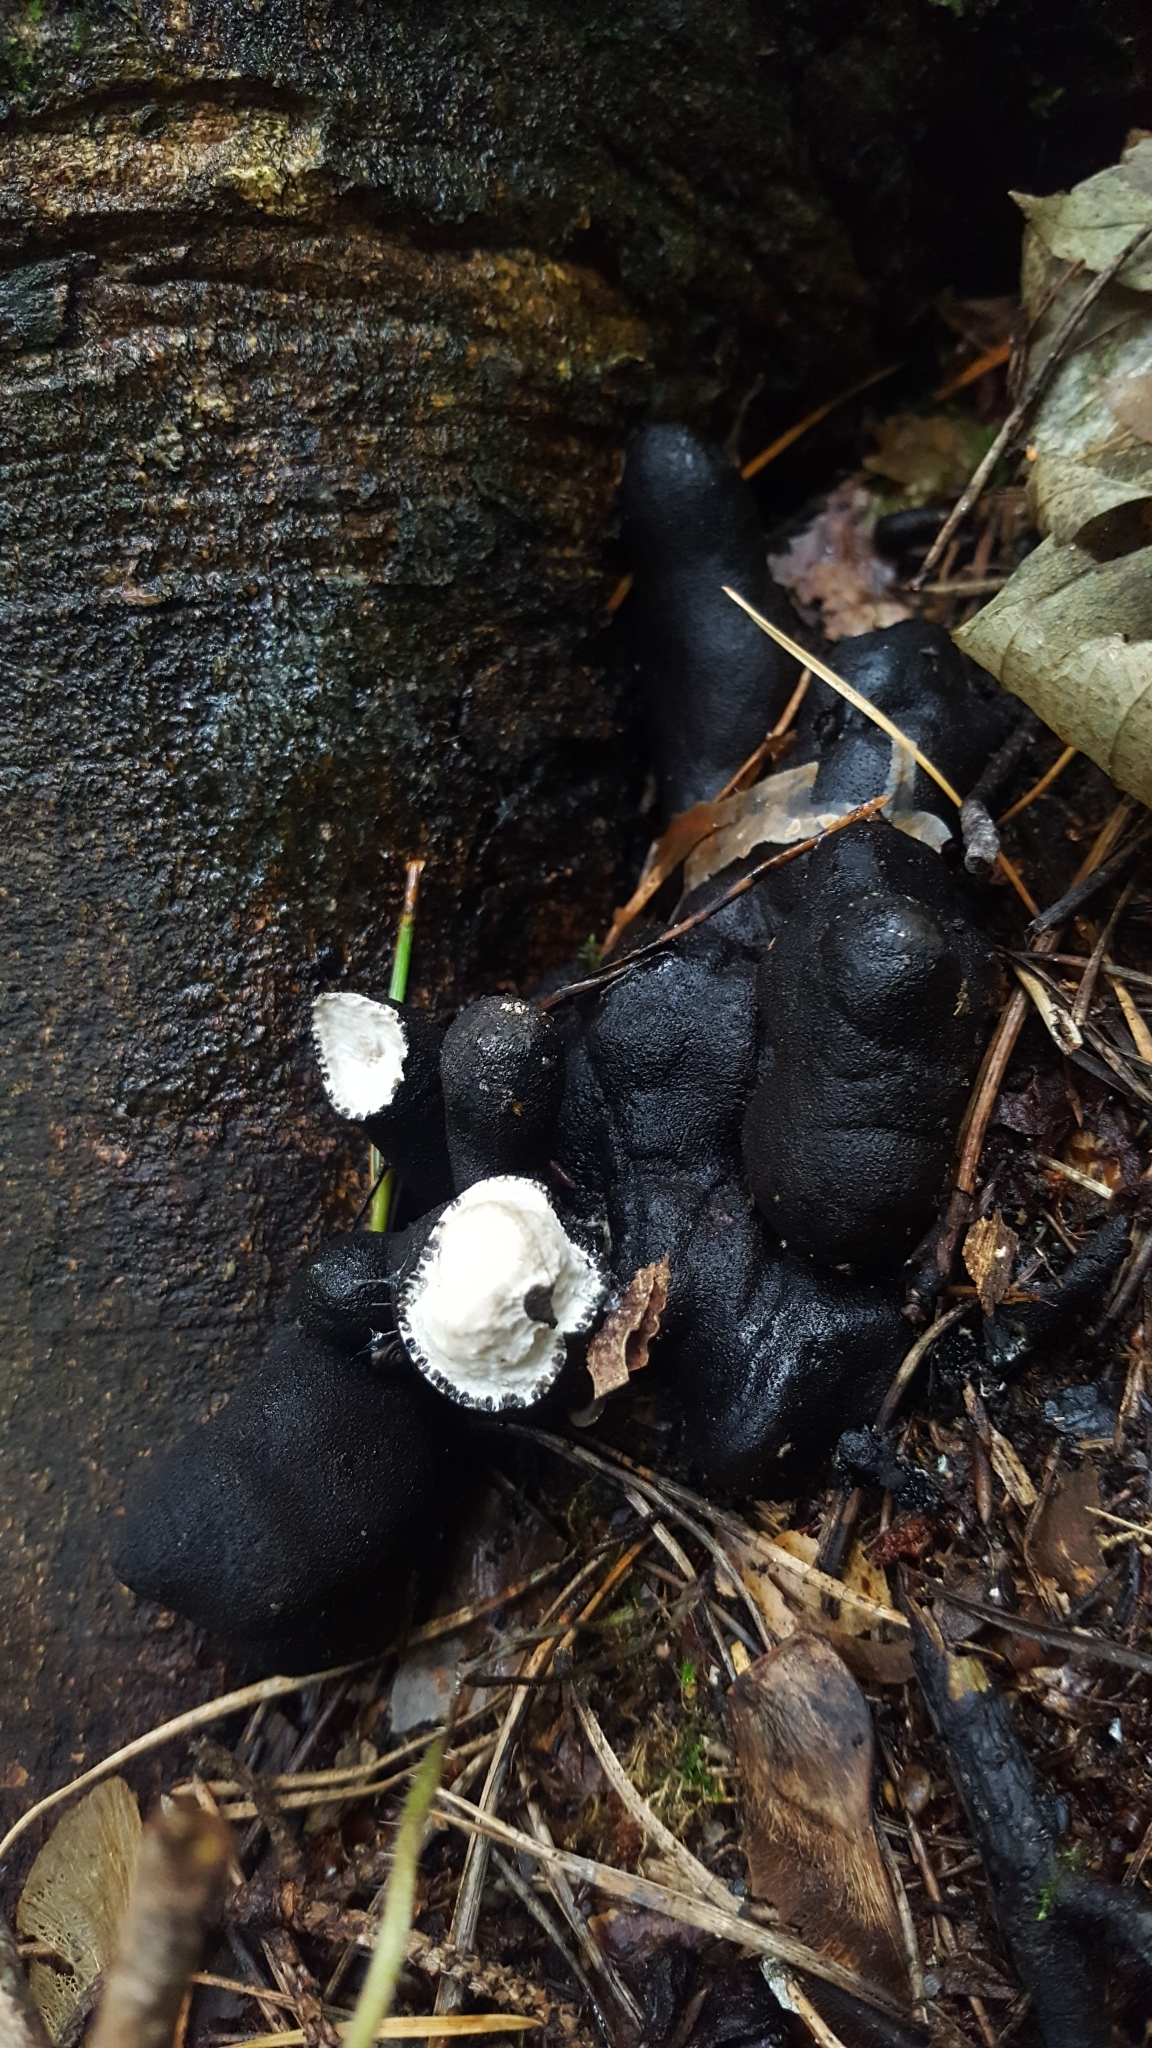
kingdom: Fungi
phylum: Ascomycota
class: Sordariomycetes
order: Xylariales
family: Xylariaceae
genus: Xylaria
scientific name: Xylaria polymorpha
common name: Dead man's fingers
